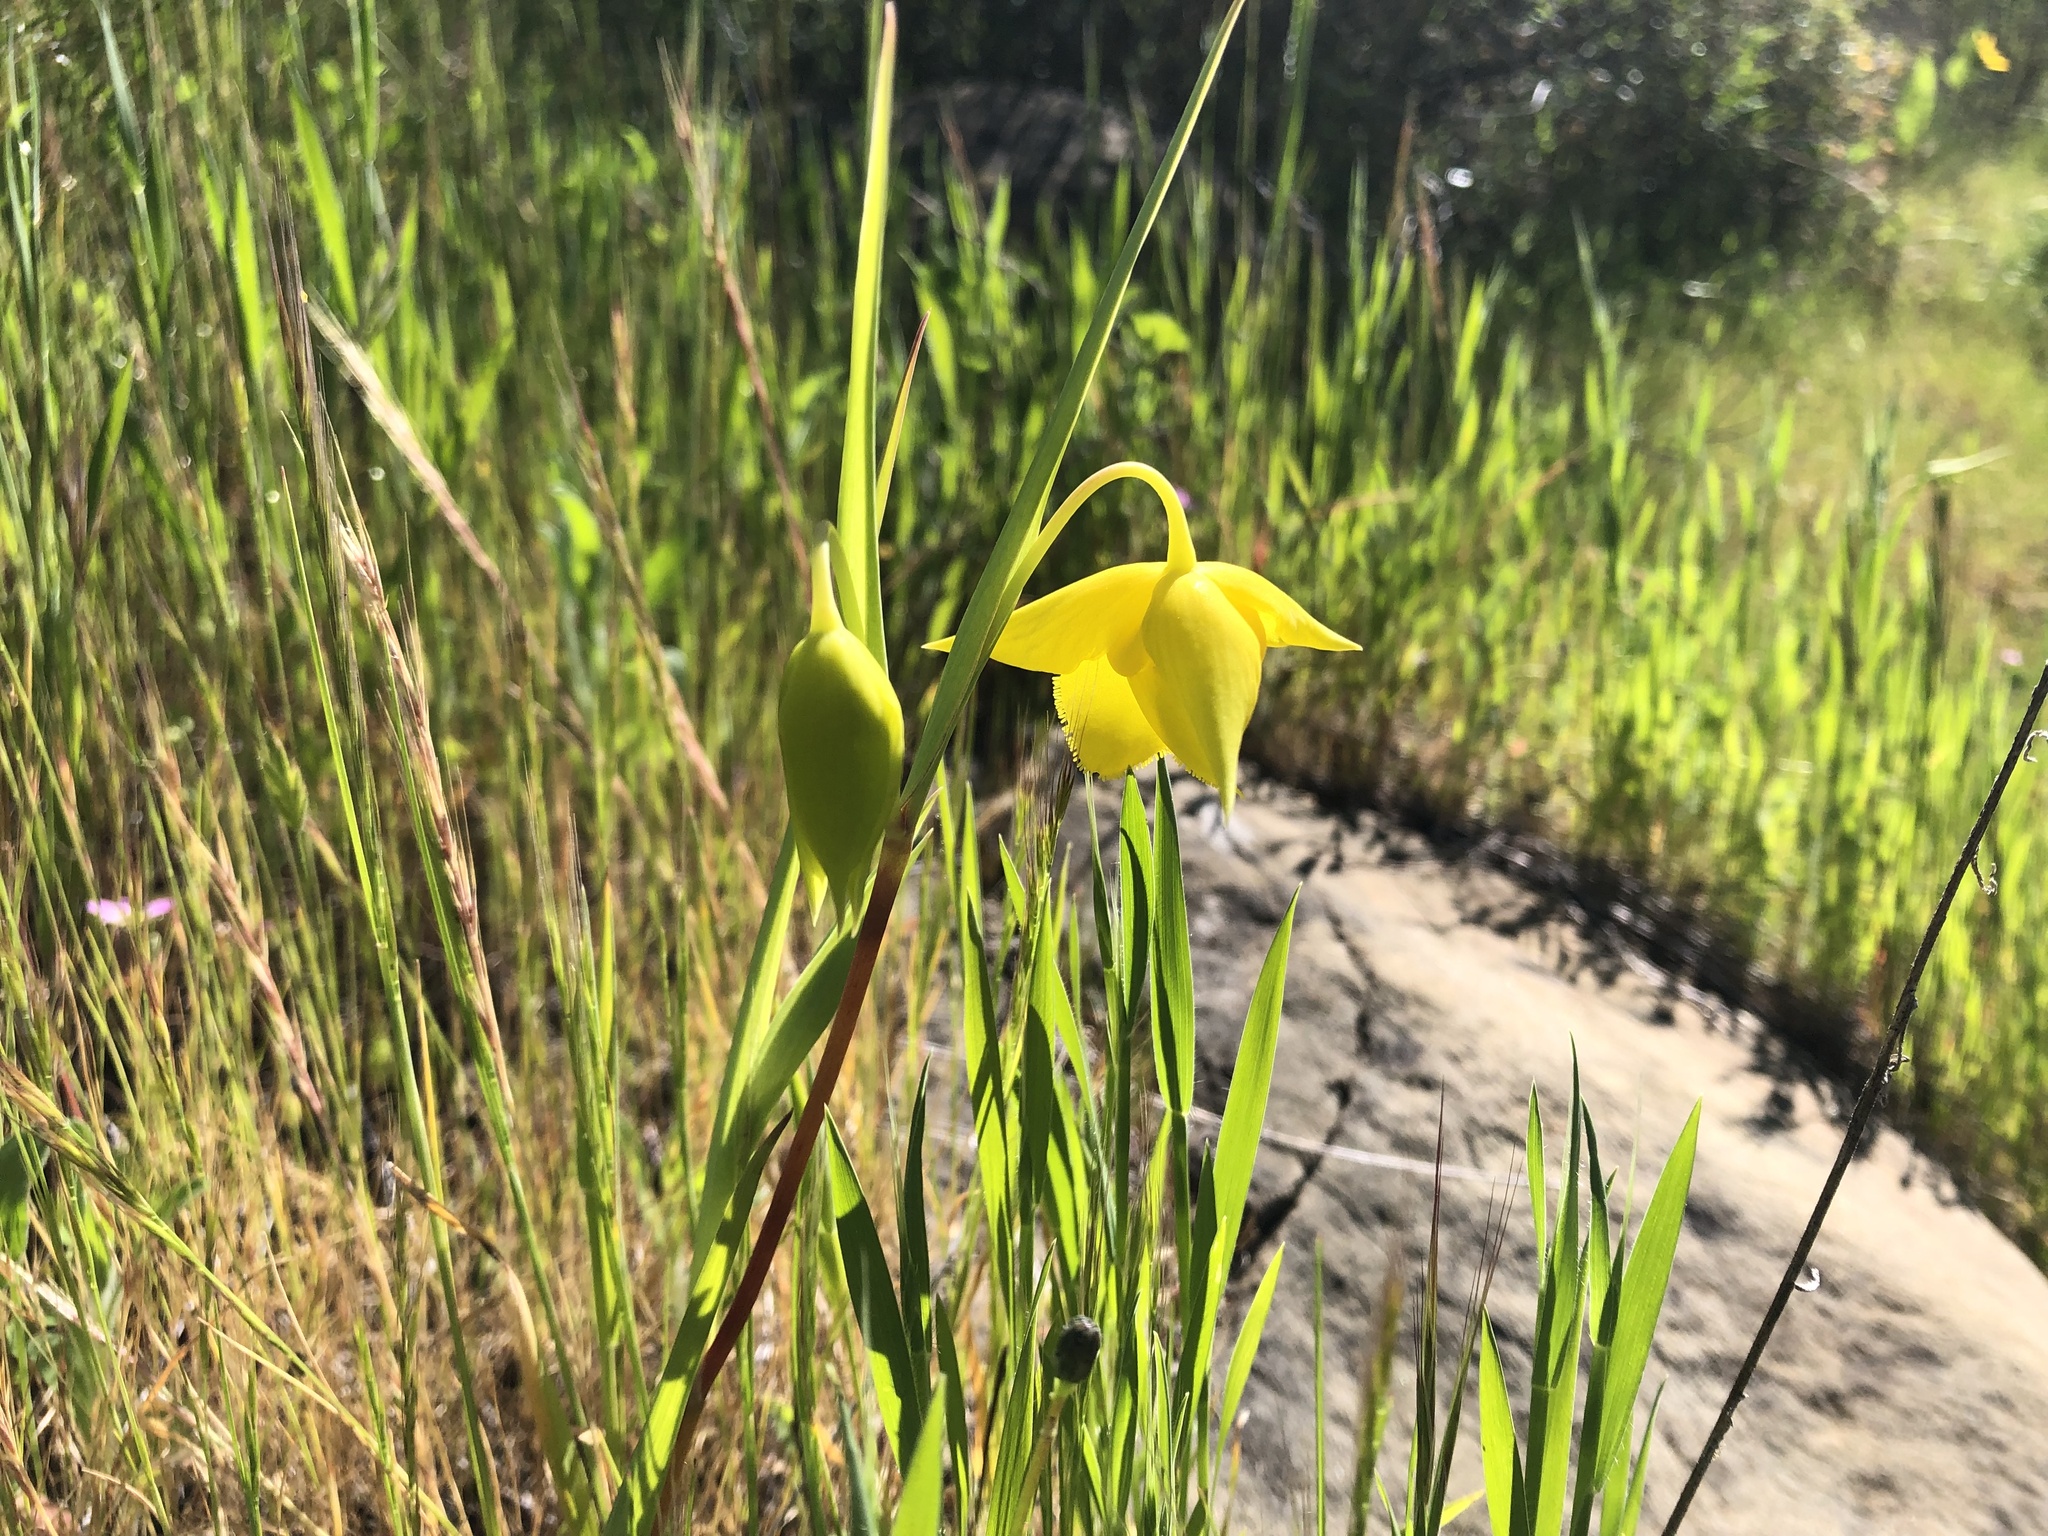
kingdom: Plantae
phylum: Tracheophyta
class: Liliopsida
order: Liliales
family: Liliaceae
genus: Calochortus
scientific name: Calochortus amabilis
